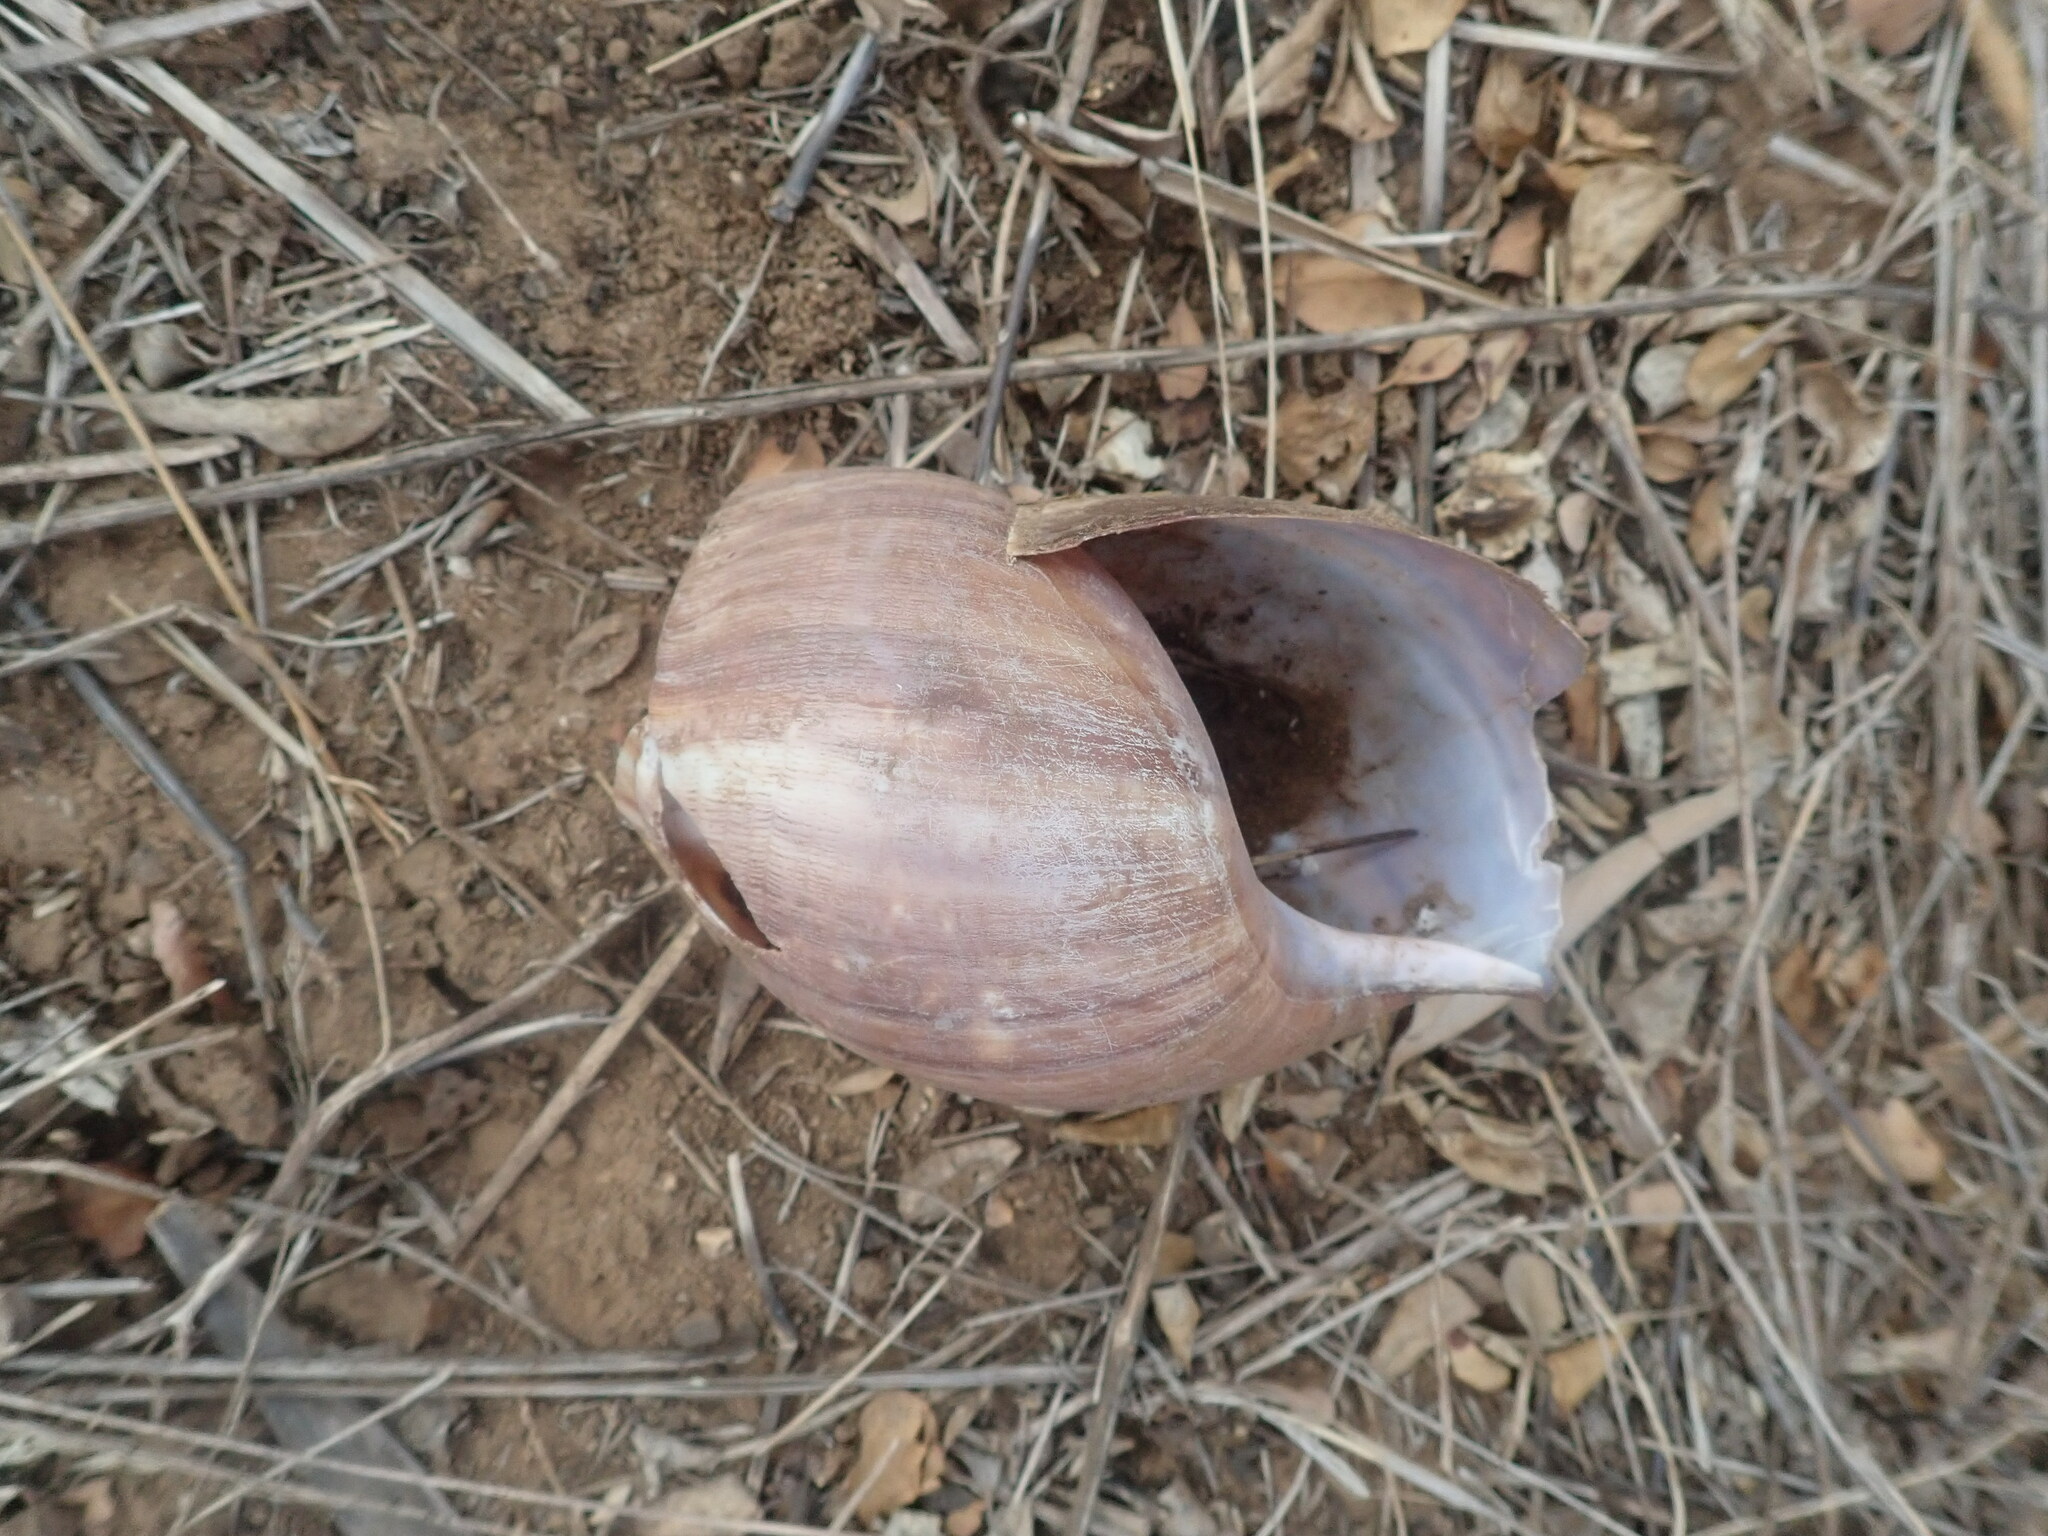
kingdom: Animalia
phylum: Mollusca
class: Gastropoda
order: Stylommatophora
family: Achatinidae
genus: Lissachatina
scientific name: Lissachatina fulica
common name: Giant african snail
